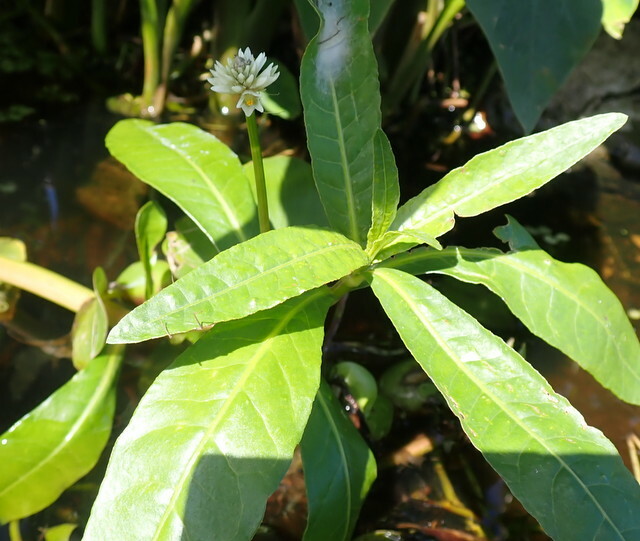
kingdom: Plantae
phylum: Tracheophyta
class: Magnoliopsida
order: Caryophyllales
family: Amaranthaceae
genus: Alternanthera
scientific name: Alternanthera philoxeroides
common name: Alligatorweed
